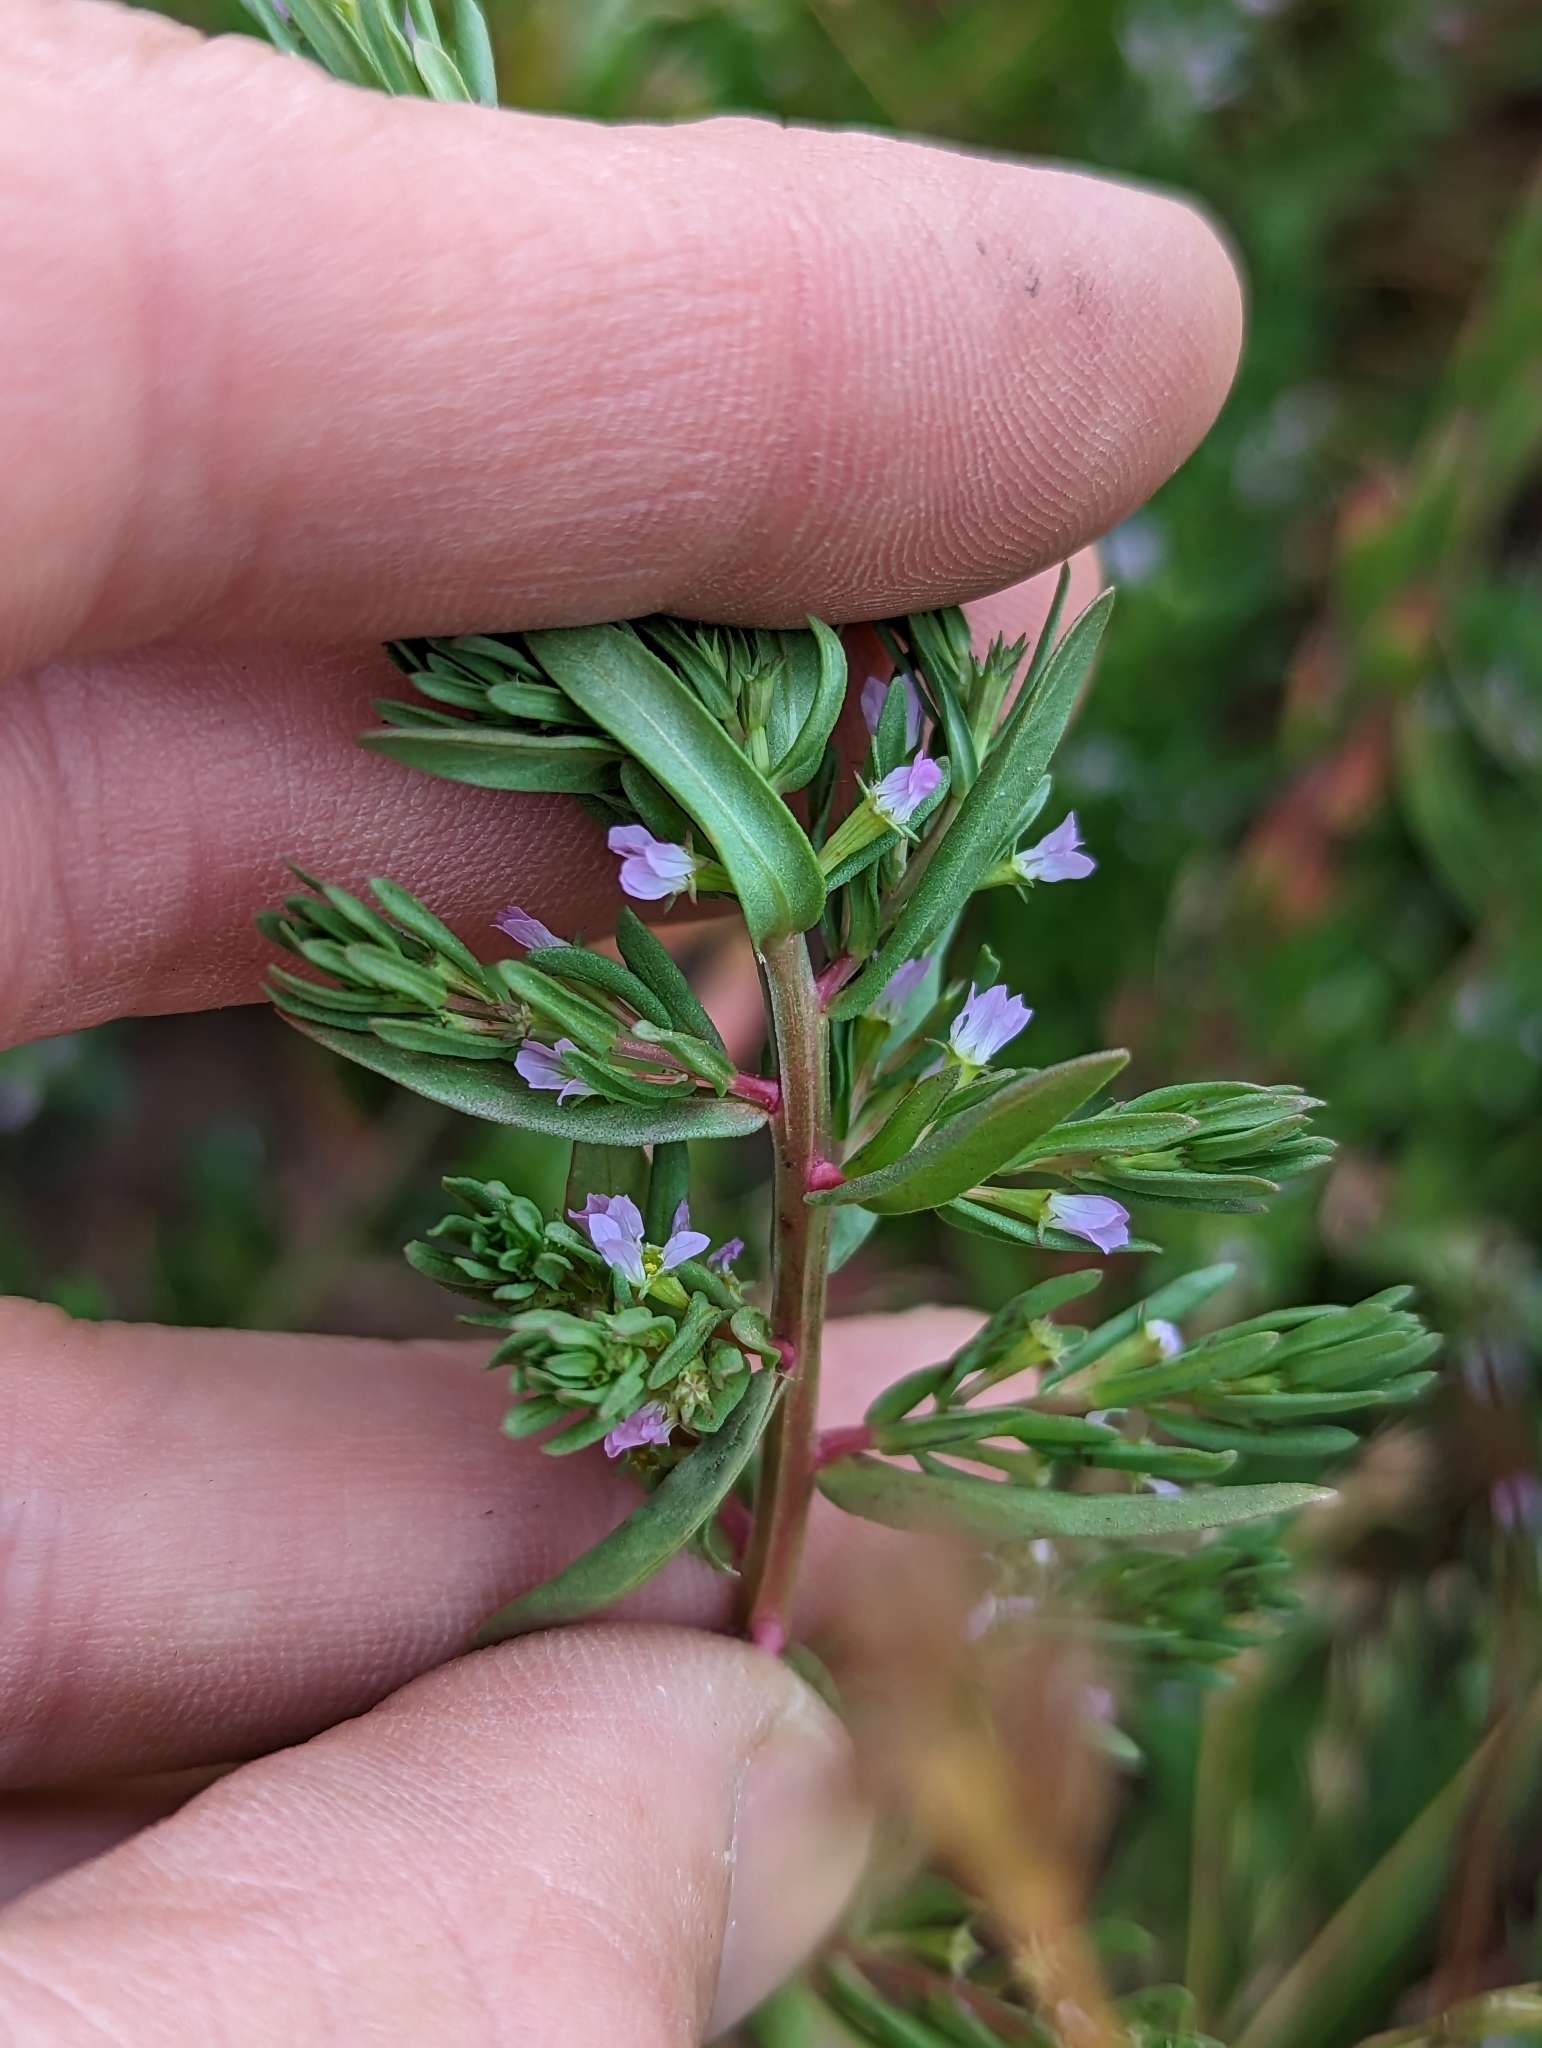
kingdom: Plantae
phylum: Tracheophyta
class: Magnoliopsida
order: Myrtales
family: Lythraceae
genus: Lythrum
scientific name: Lythrum hyssopifolia
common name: Grass-poly
